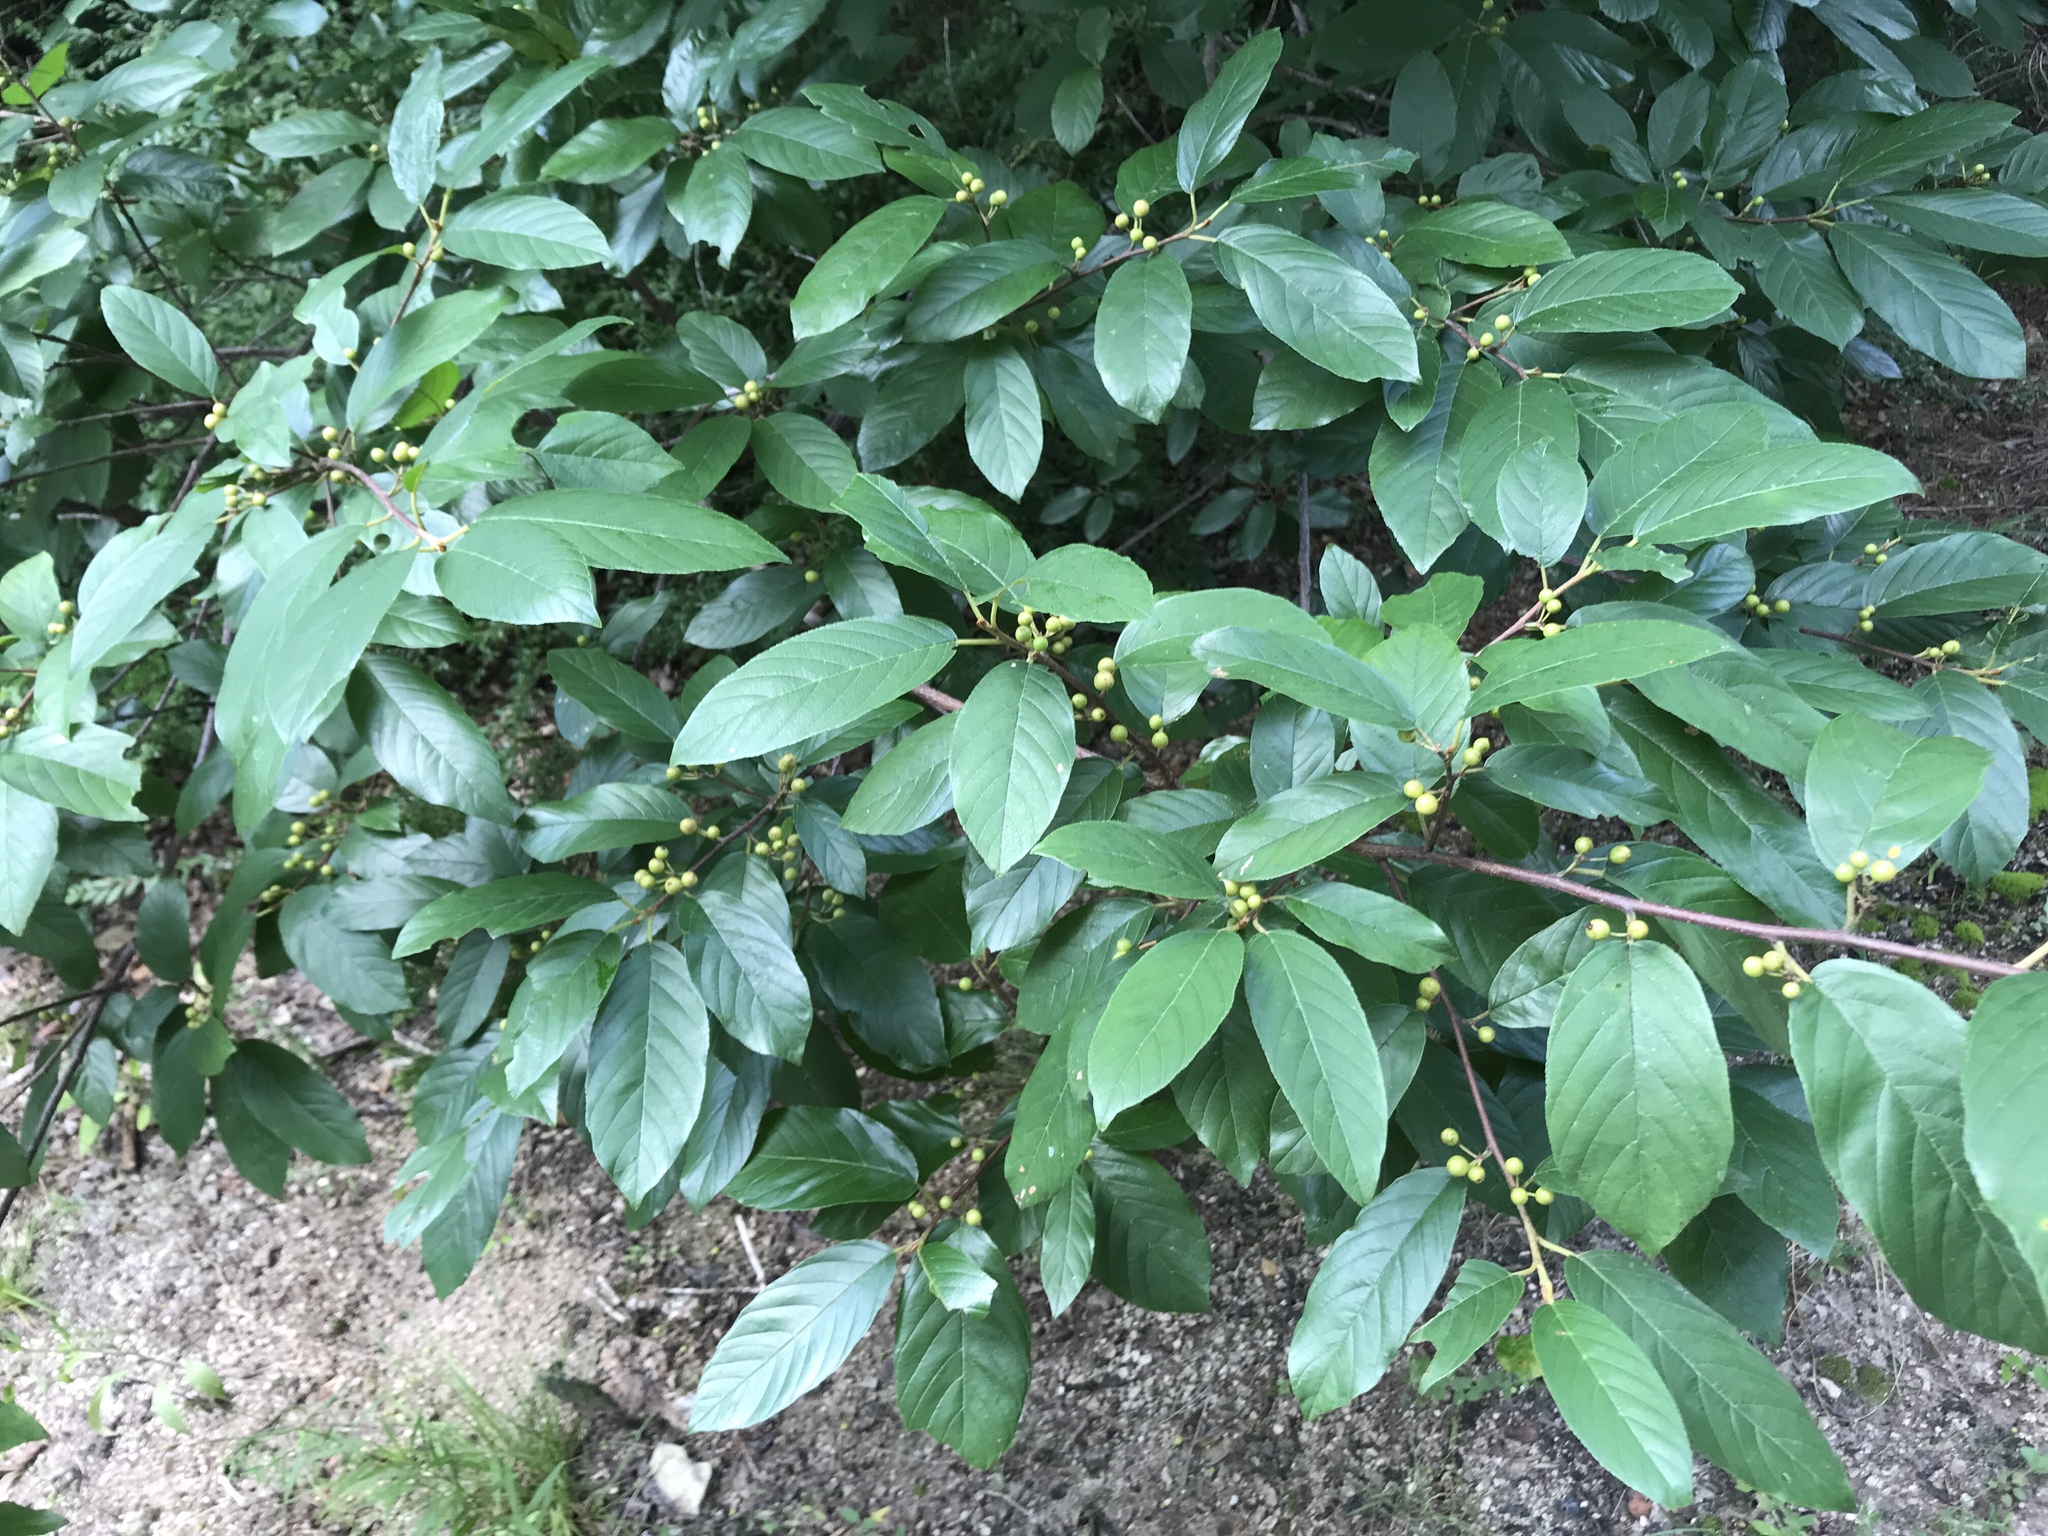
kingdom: Plantae
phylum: Tracheophyta
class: Magnoliopsida
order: Rosales
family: Rhamnaceae
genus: Frangula
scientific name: Frangula caroliniana
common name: Carolina buckthorn
